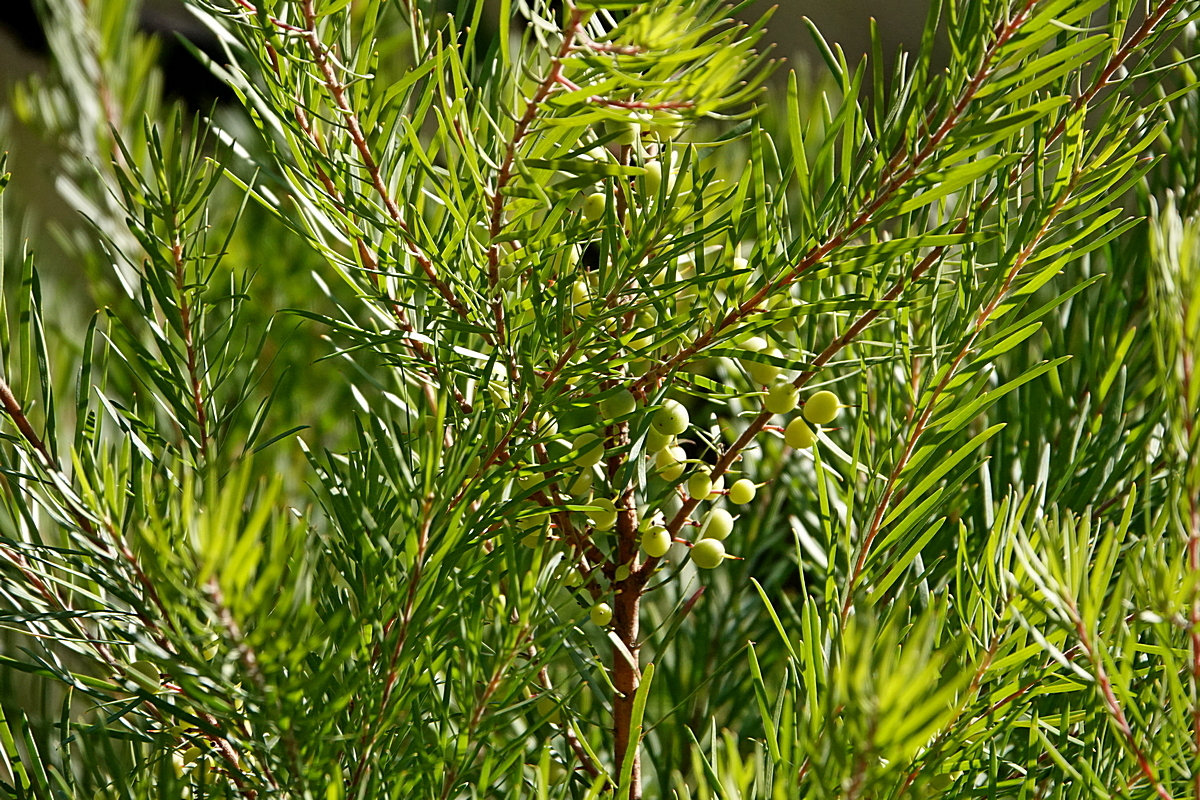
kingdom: Plantae
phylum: Tracheophyta
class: Magnoliopsida
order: Proteales
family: Proteaceae
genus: Persoonia
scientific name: Persoonia linearis
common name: Narrow-leaf geebung
